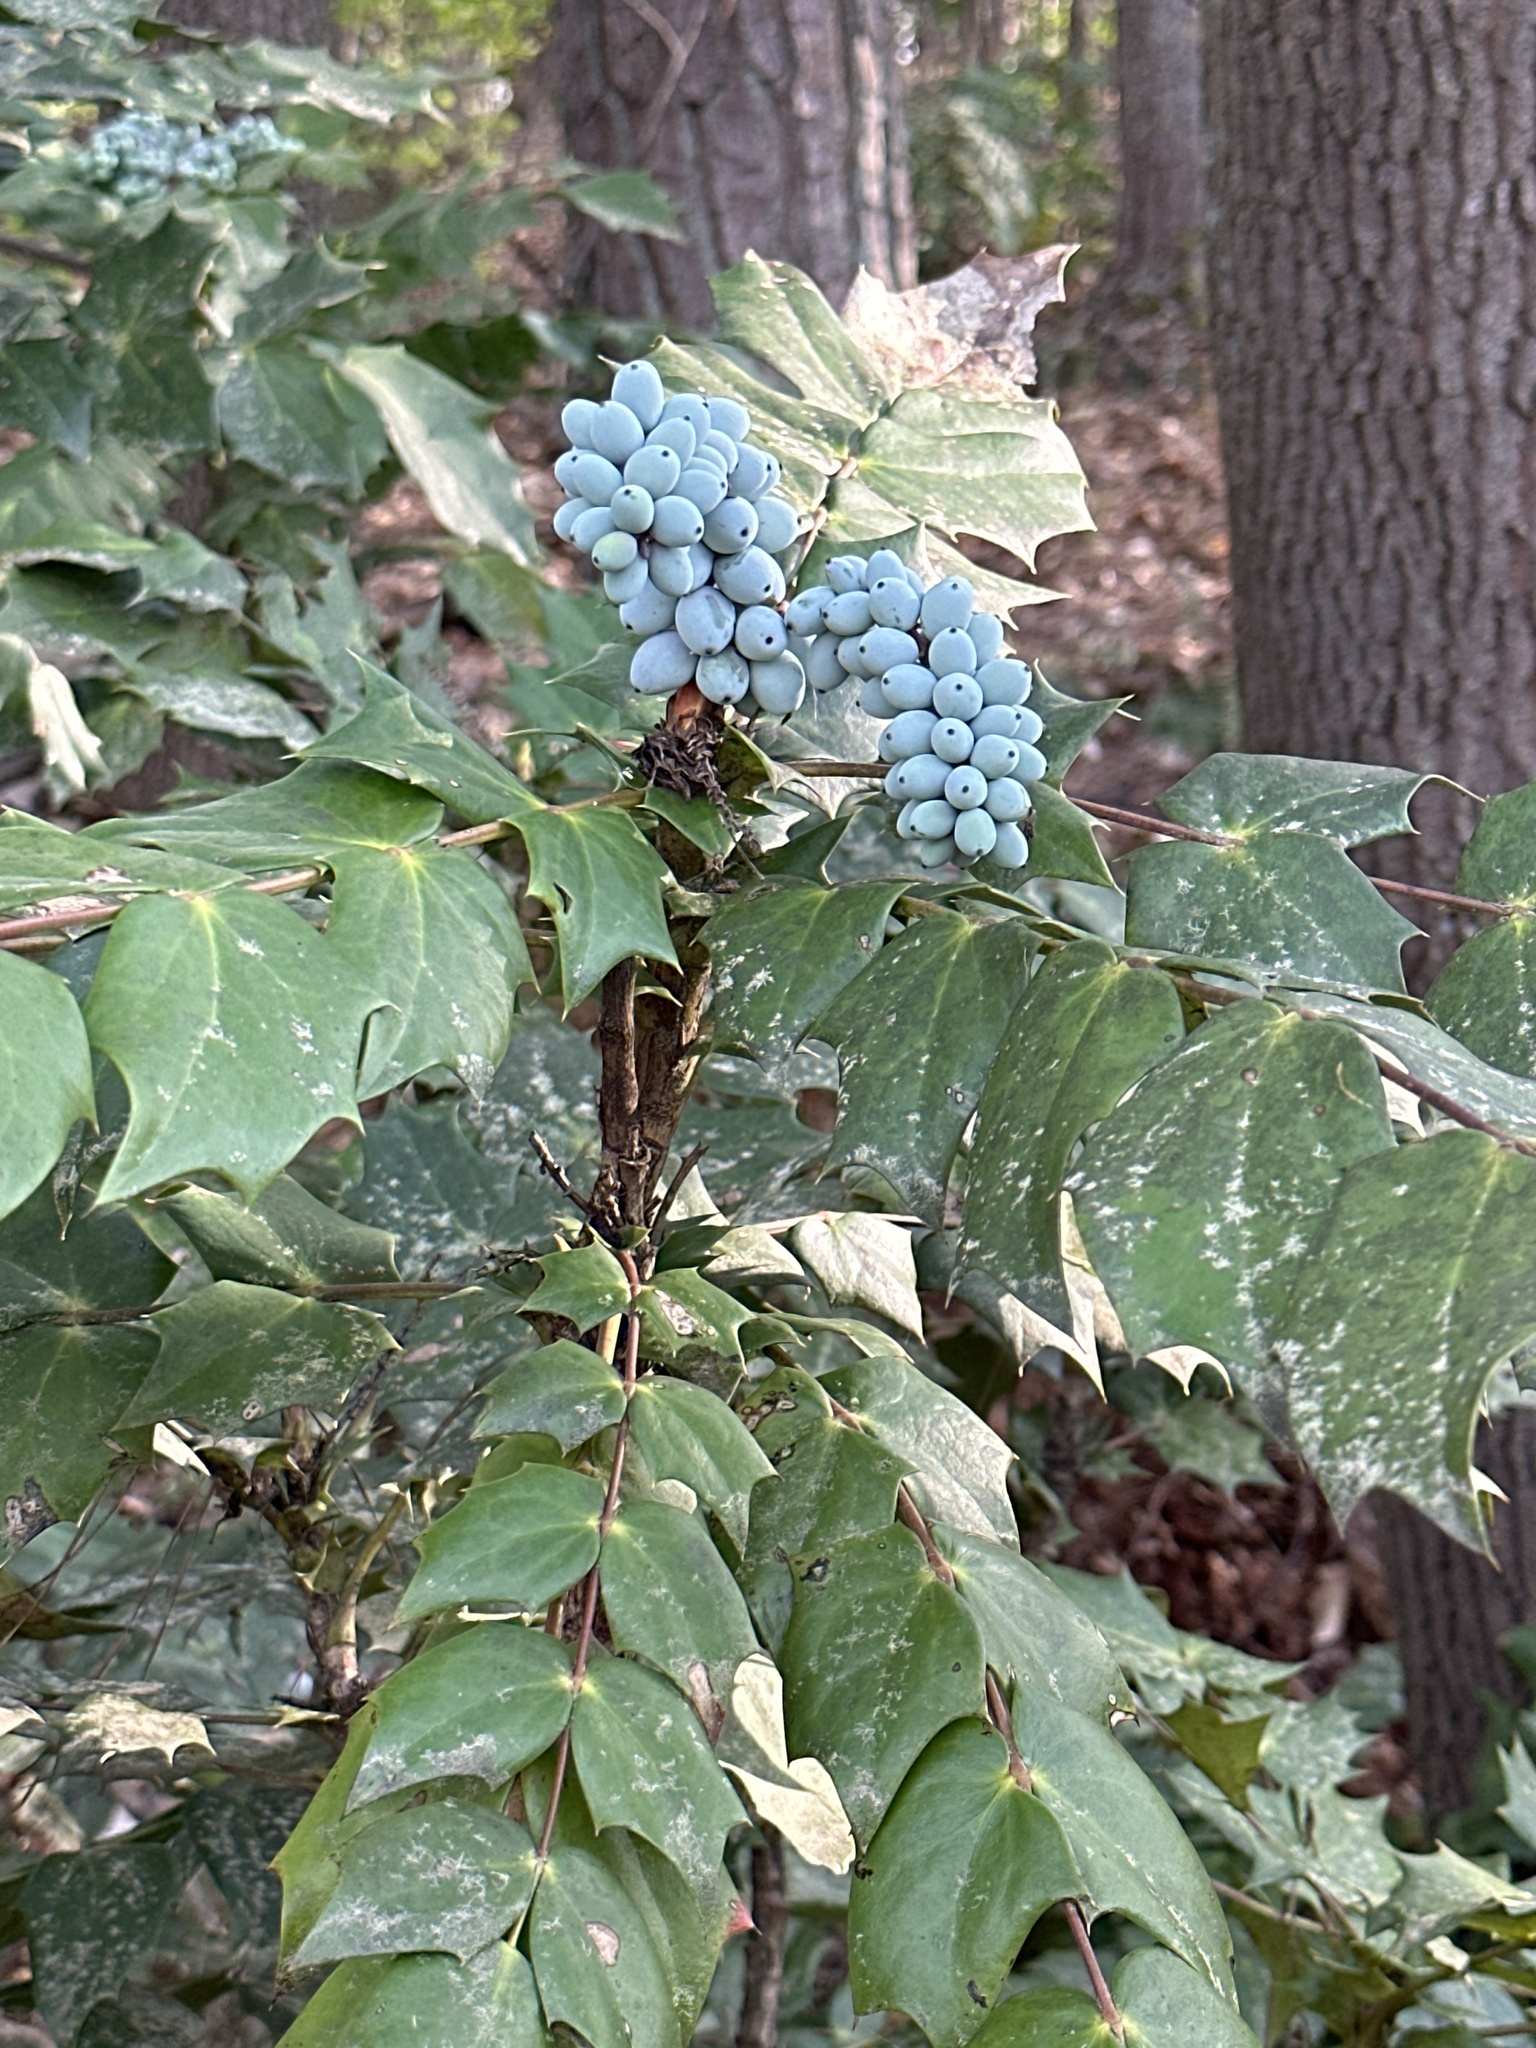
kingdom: Plantae
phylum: Tracheophyta
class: Magnoliopsida
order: Ranunculales
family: Berberidaceae
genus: Mahonia
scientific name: Mahonia bealei
